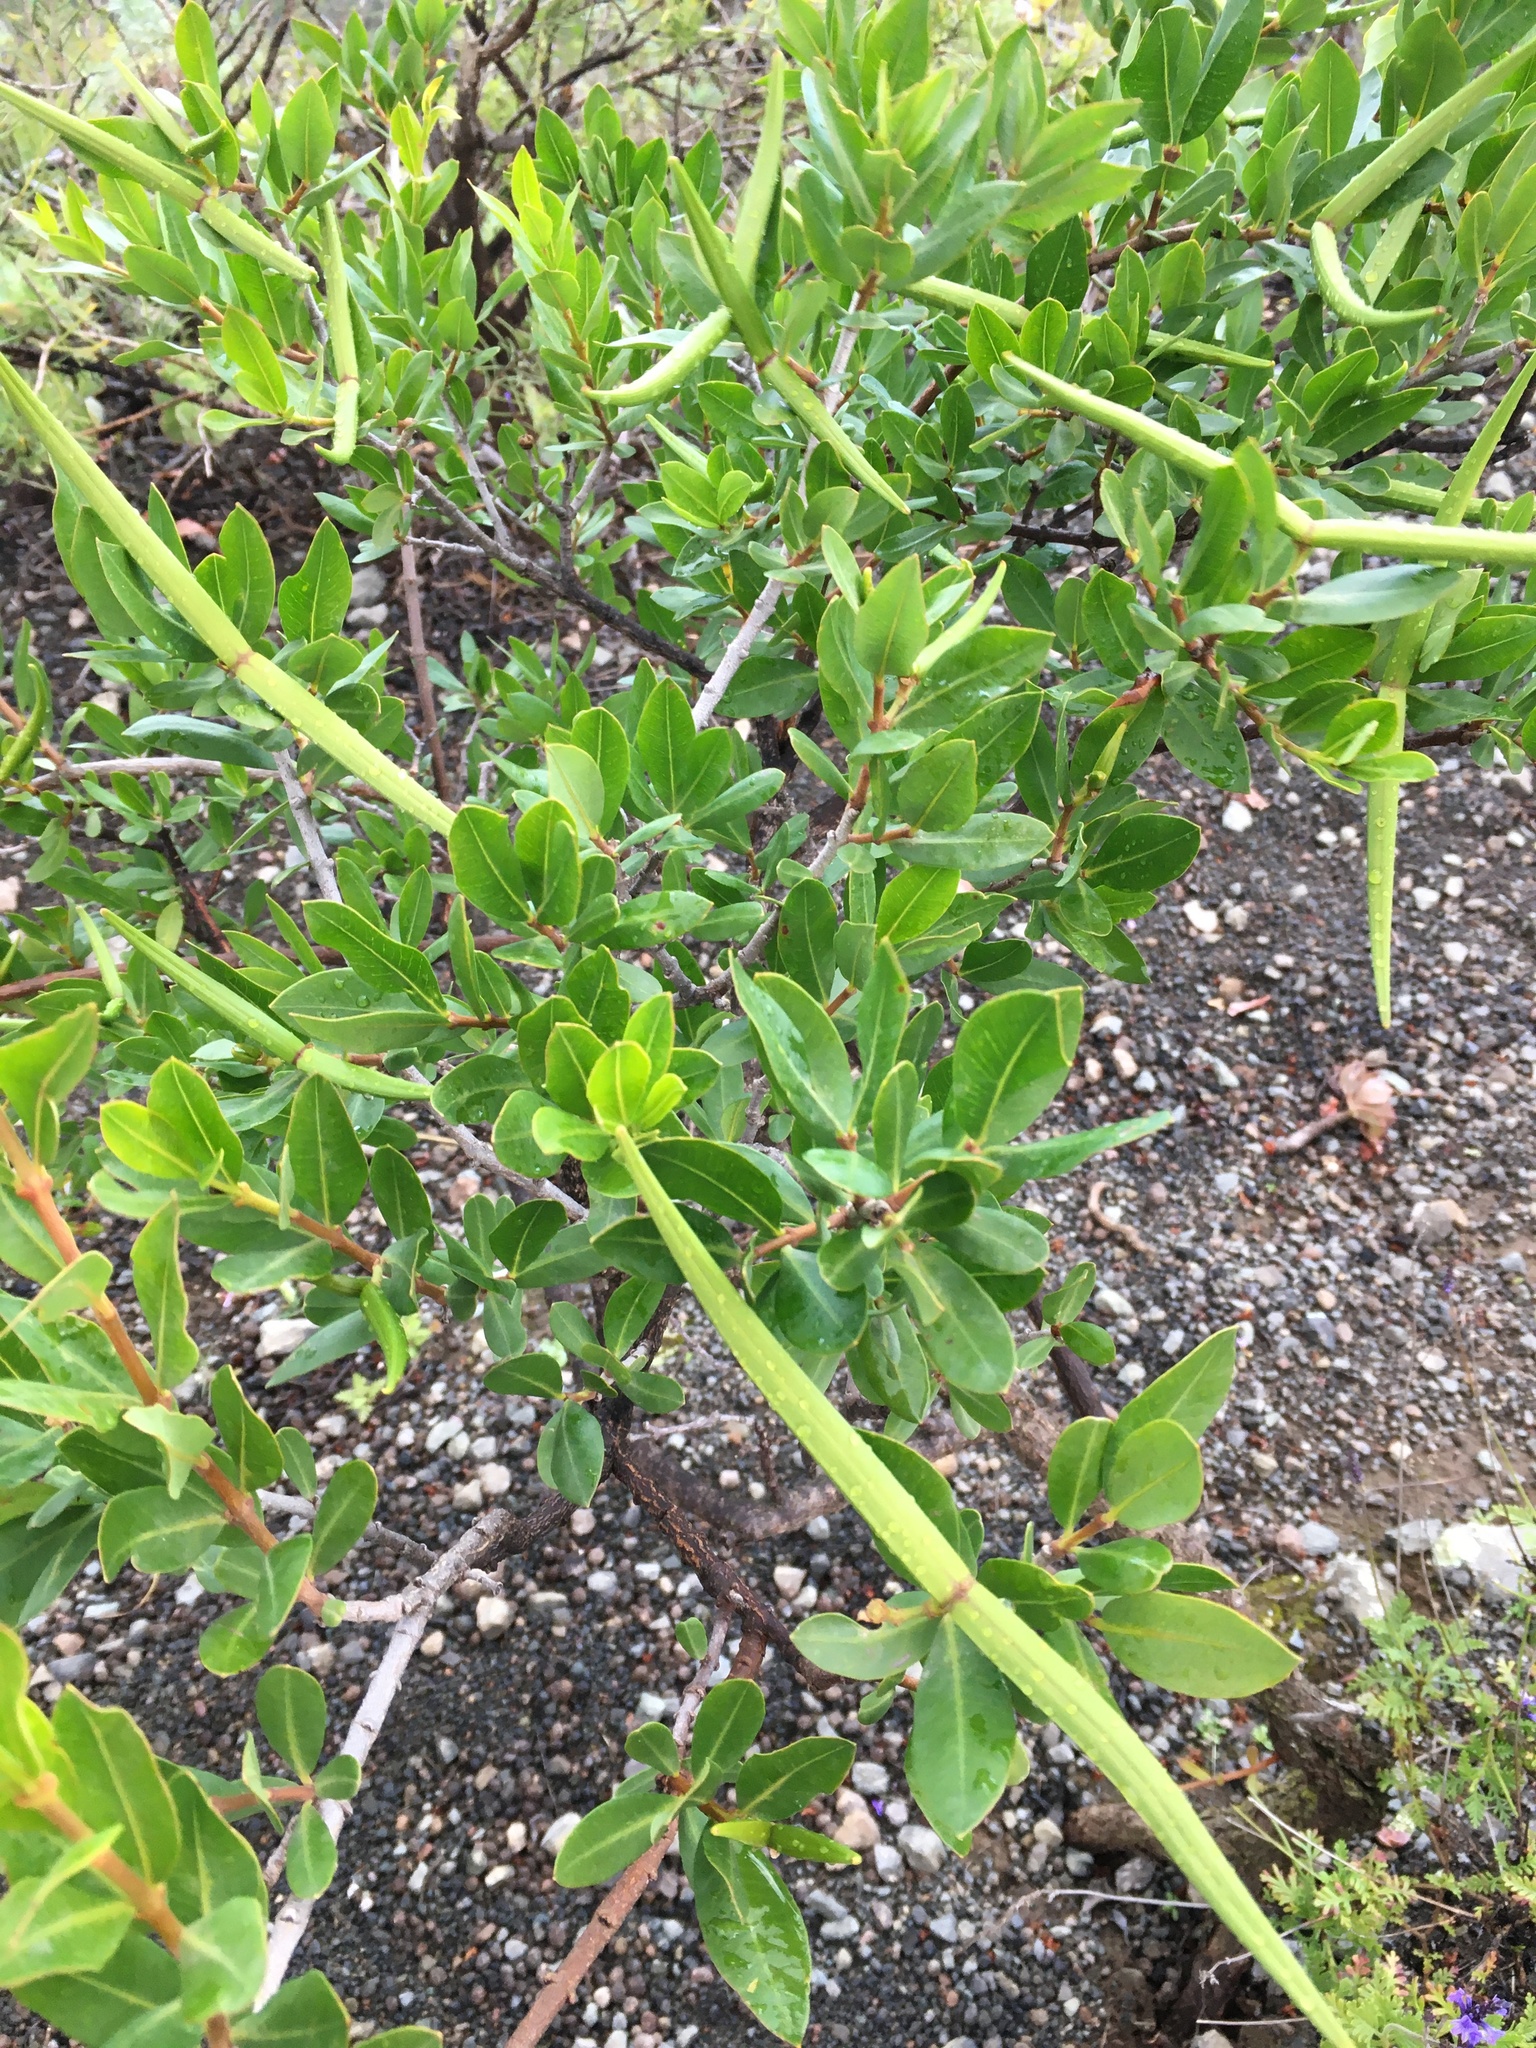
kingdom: Plantae
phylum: Tracheophyta
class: Magnoliopsida
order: Gentianales
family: Apocynaceae
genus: Periploca
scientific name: Periploca laevigata
